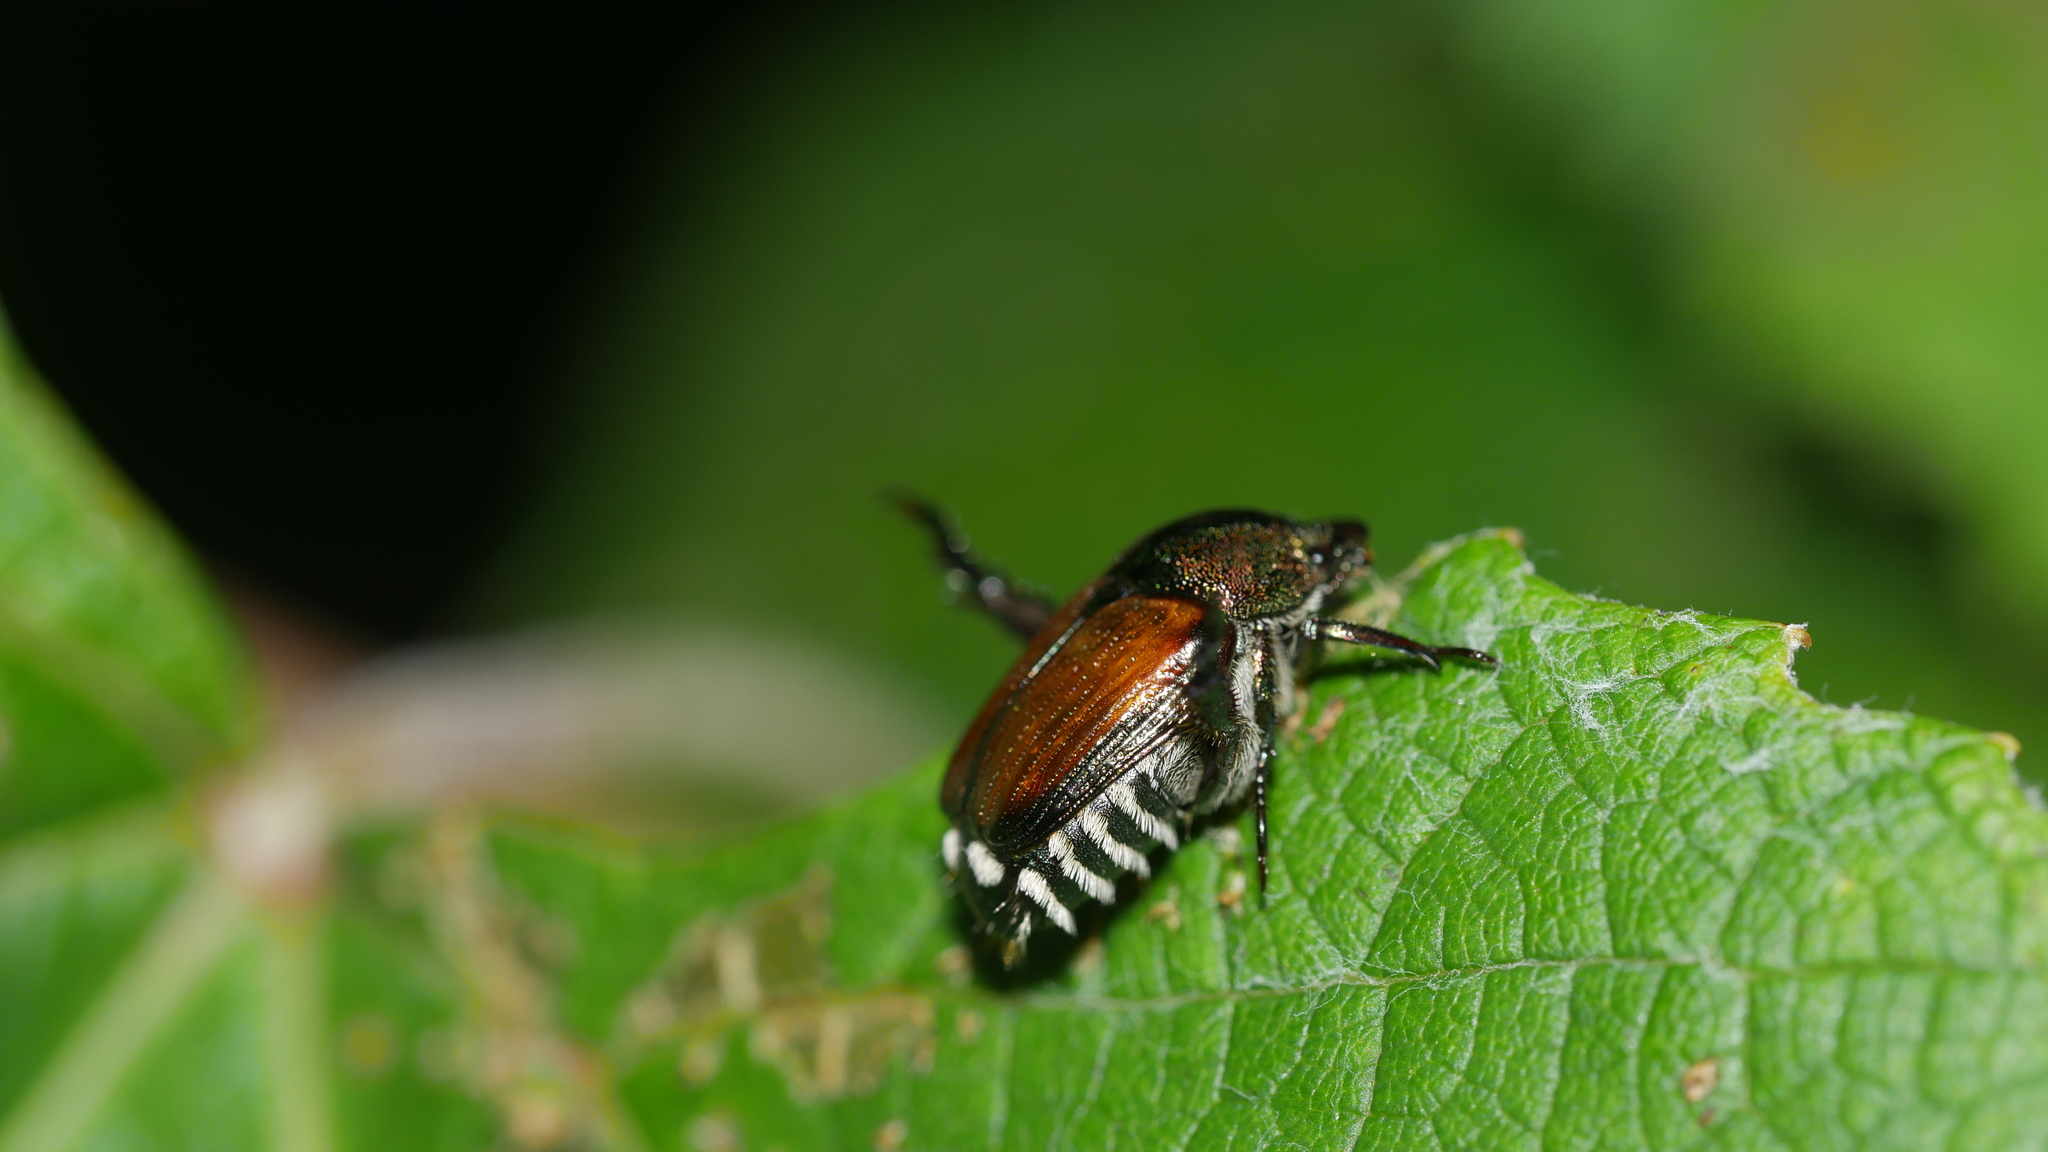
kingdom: Animalia
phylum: Arthropoda
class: Insecta
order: Coleoptera
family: Scarabaeidae
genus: Popillia
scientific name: Popillia japonica
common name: Japanese beetle
